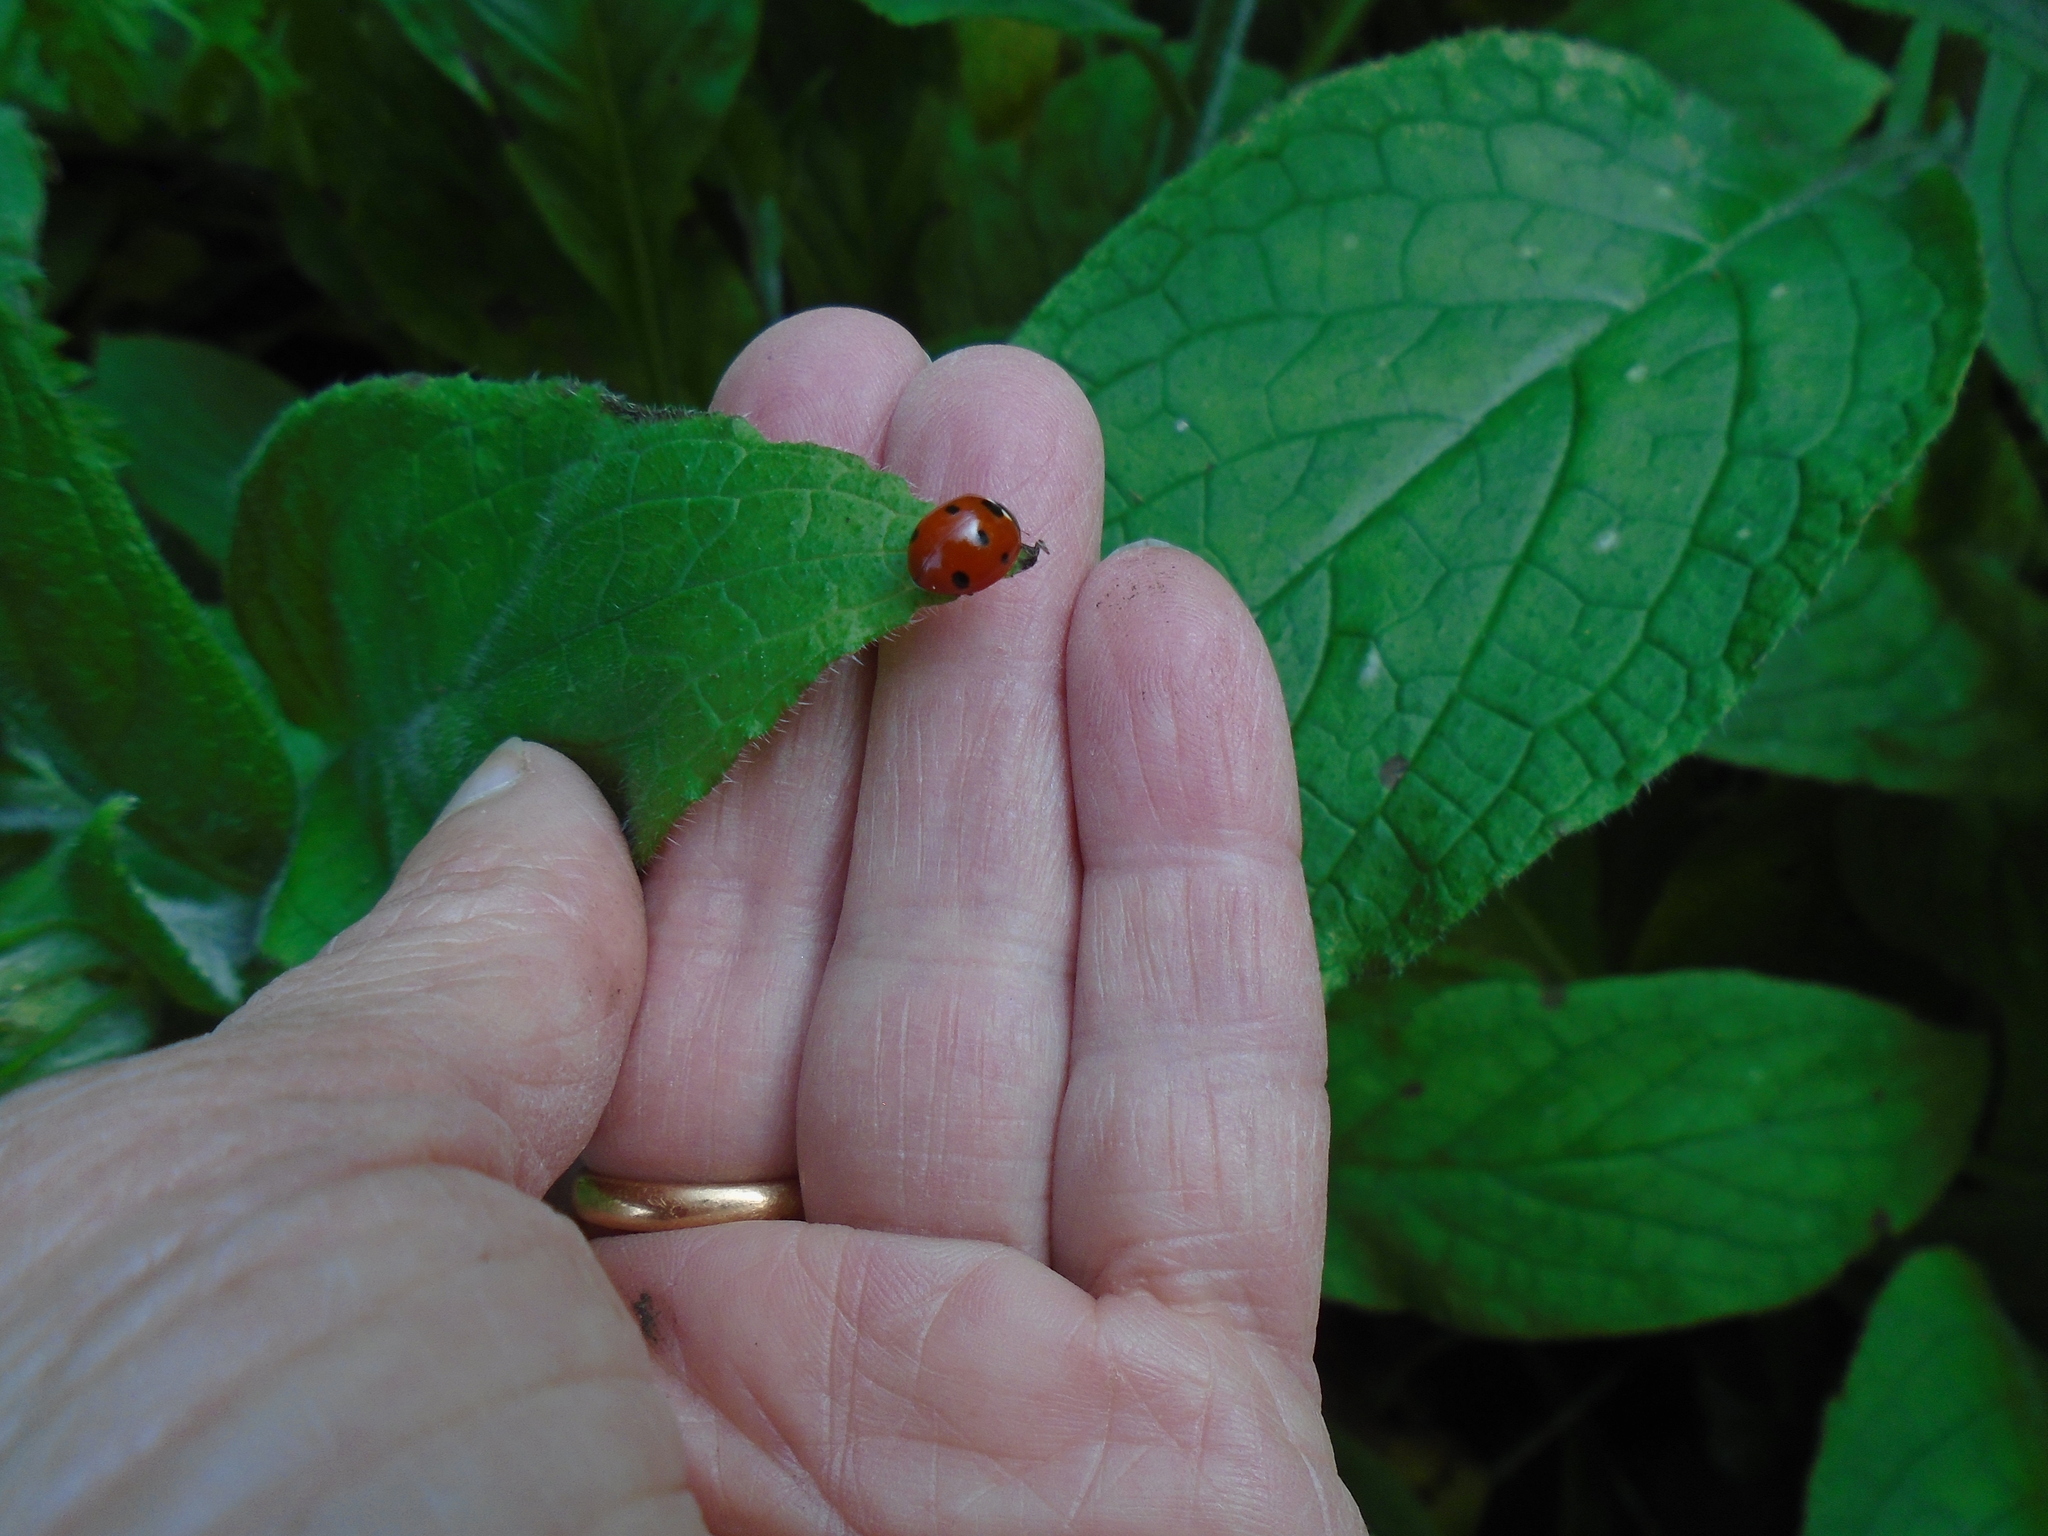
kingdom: Animalia
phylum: Arthropoda
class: Insecta
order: Coleoptera
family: Coccinellidae
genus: Coccinella
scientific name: Coccinella septempunctata
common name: Sevenspotted lady beetle
